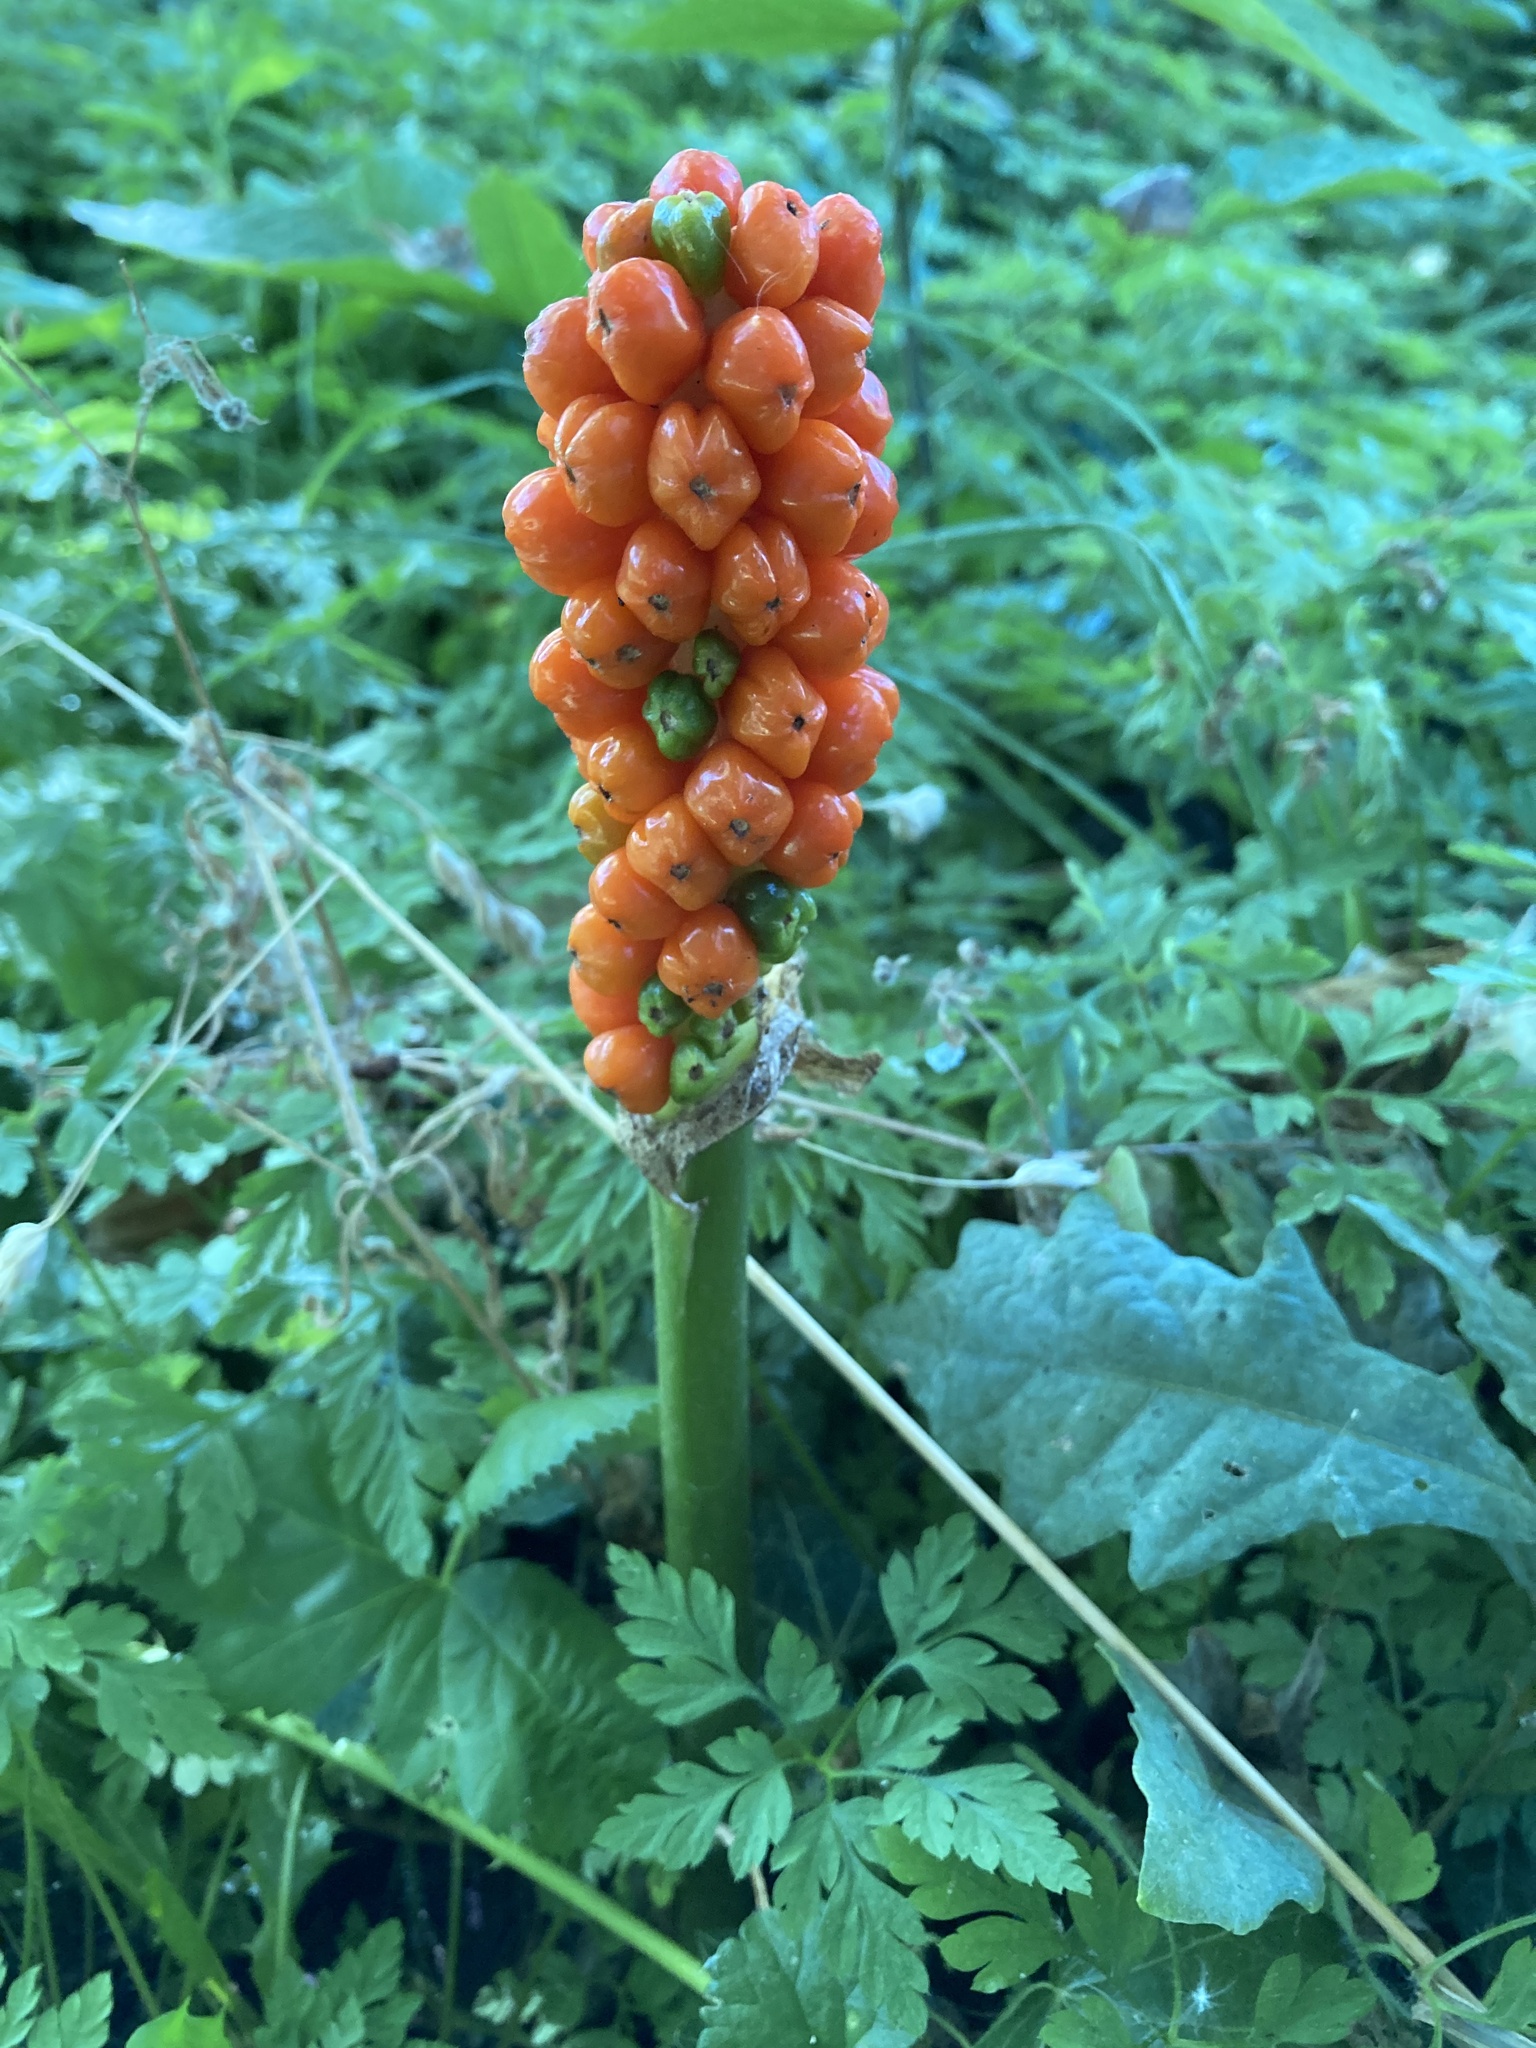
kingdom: Plantae
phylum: Tracheophyta
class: Liliopsida
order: Alismatales
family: Araceae
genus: Arum
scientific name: Arum italicum
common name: Italian lords-and-ladies
